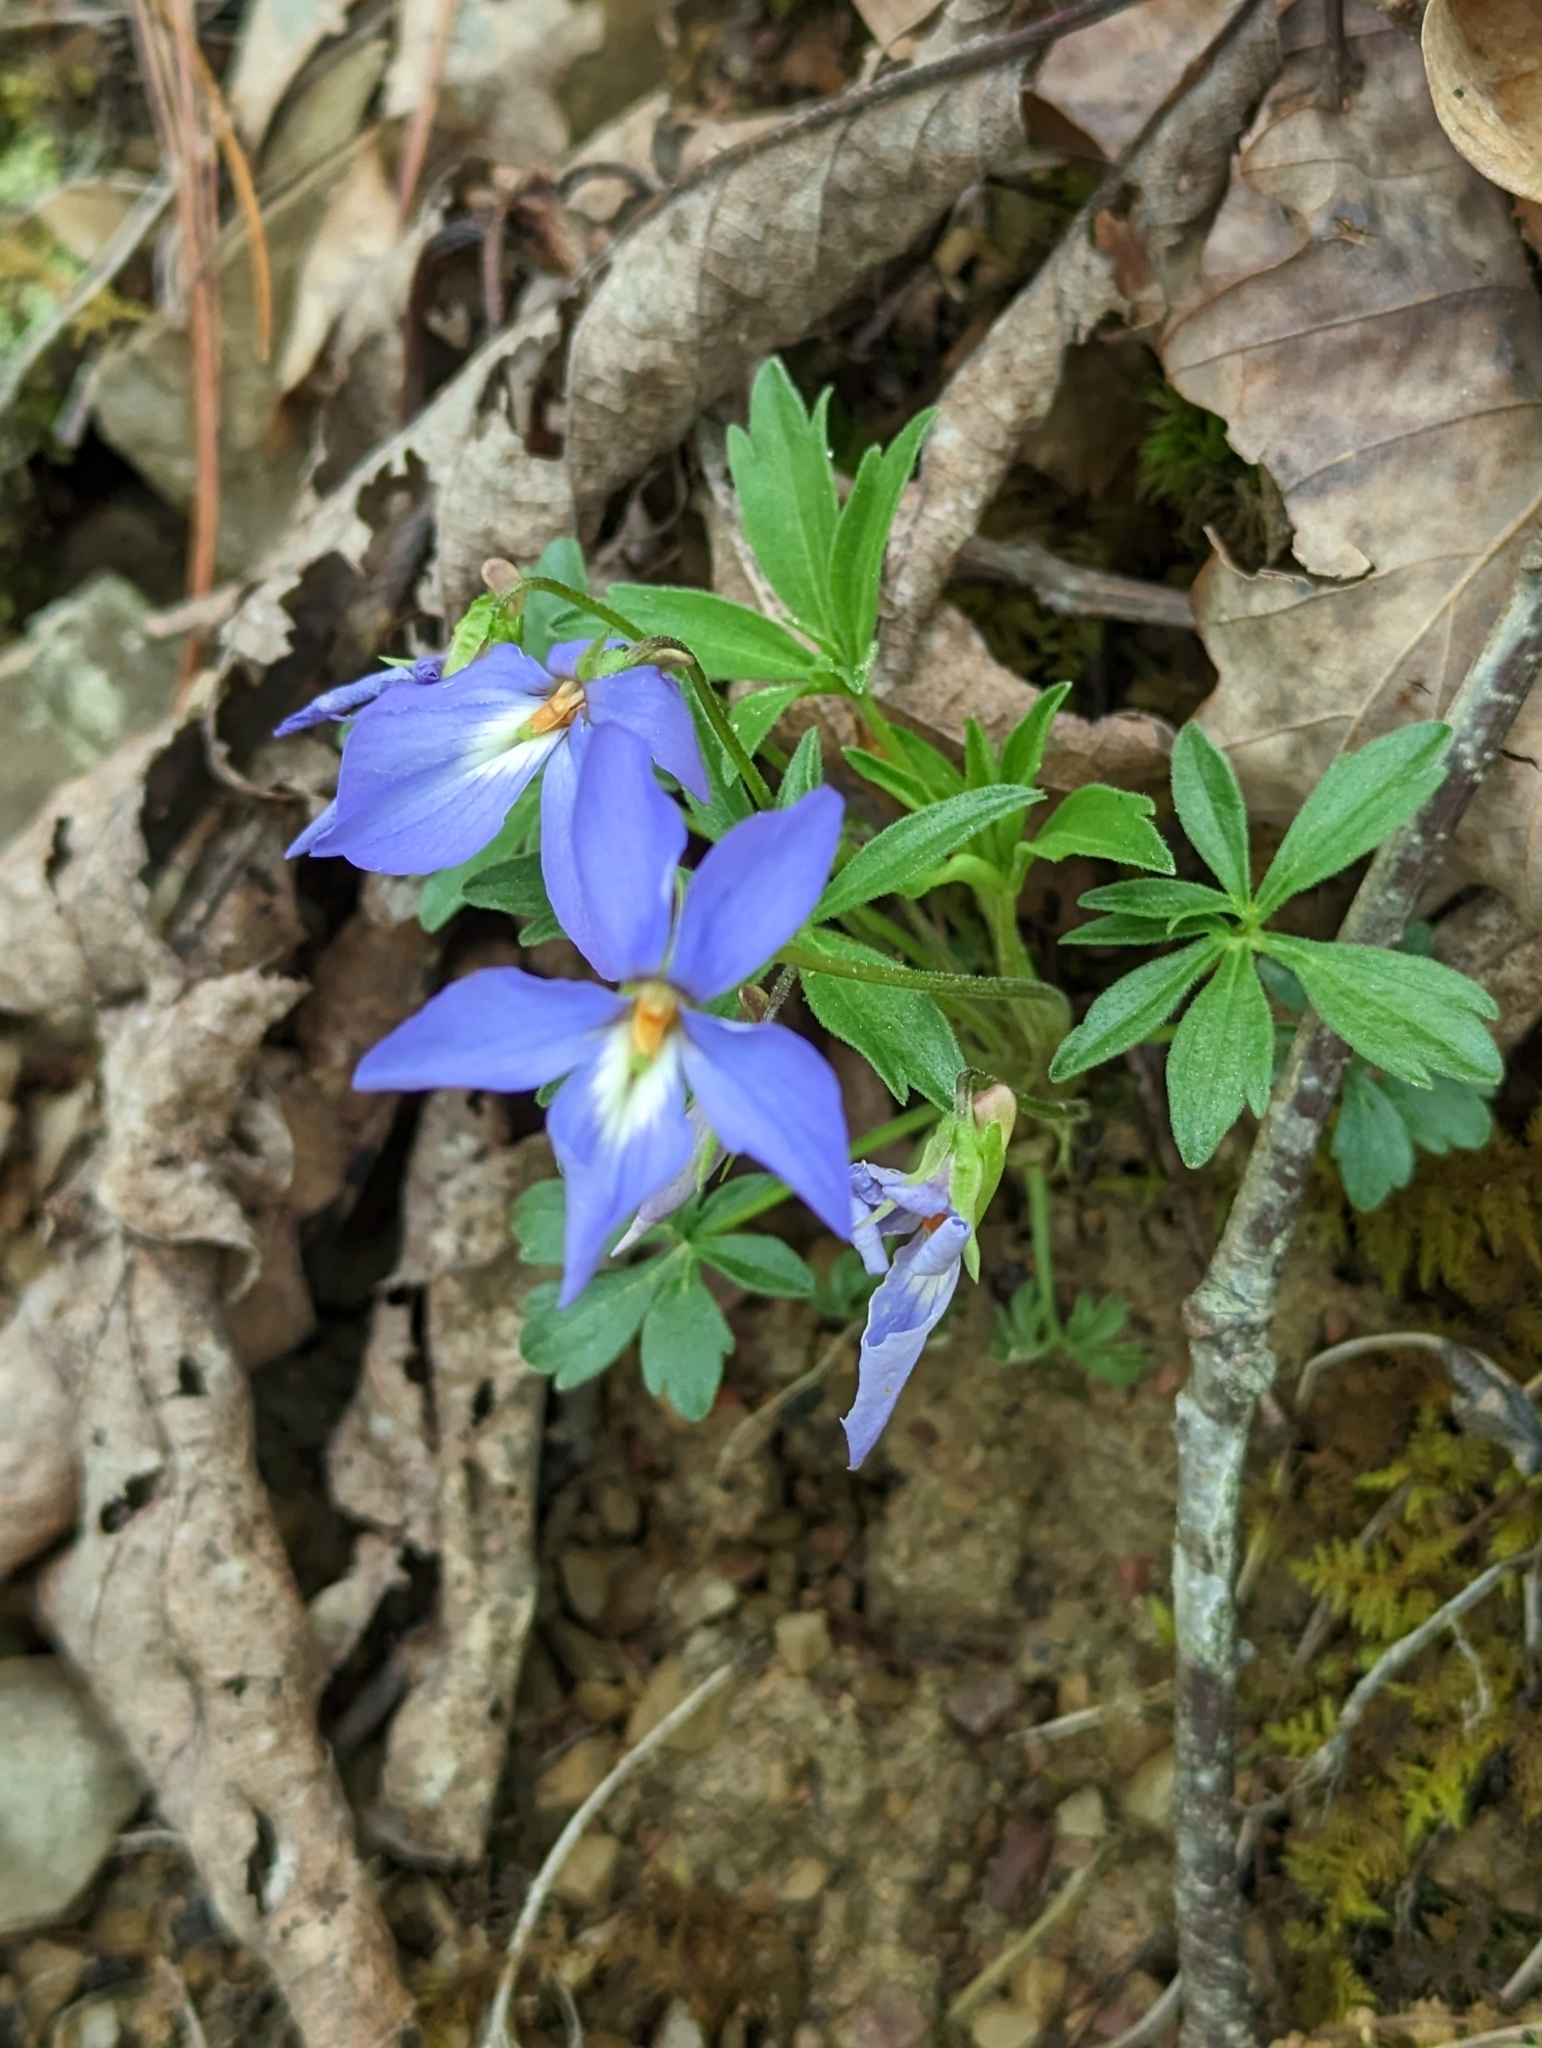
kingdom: Plantae
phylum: Tracheophyta
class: Magnoliopsida
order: Malpighiales
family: Violaceae
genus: Viola
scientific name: Viola pedata
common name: Pansy violet
